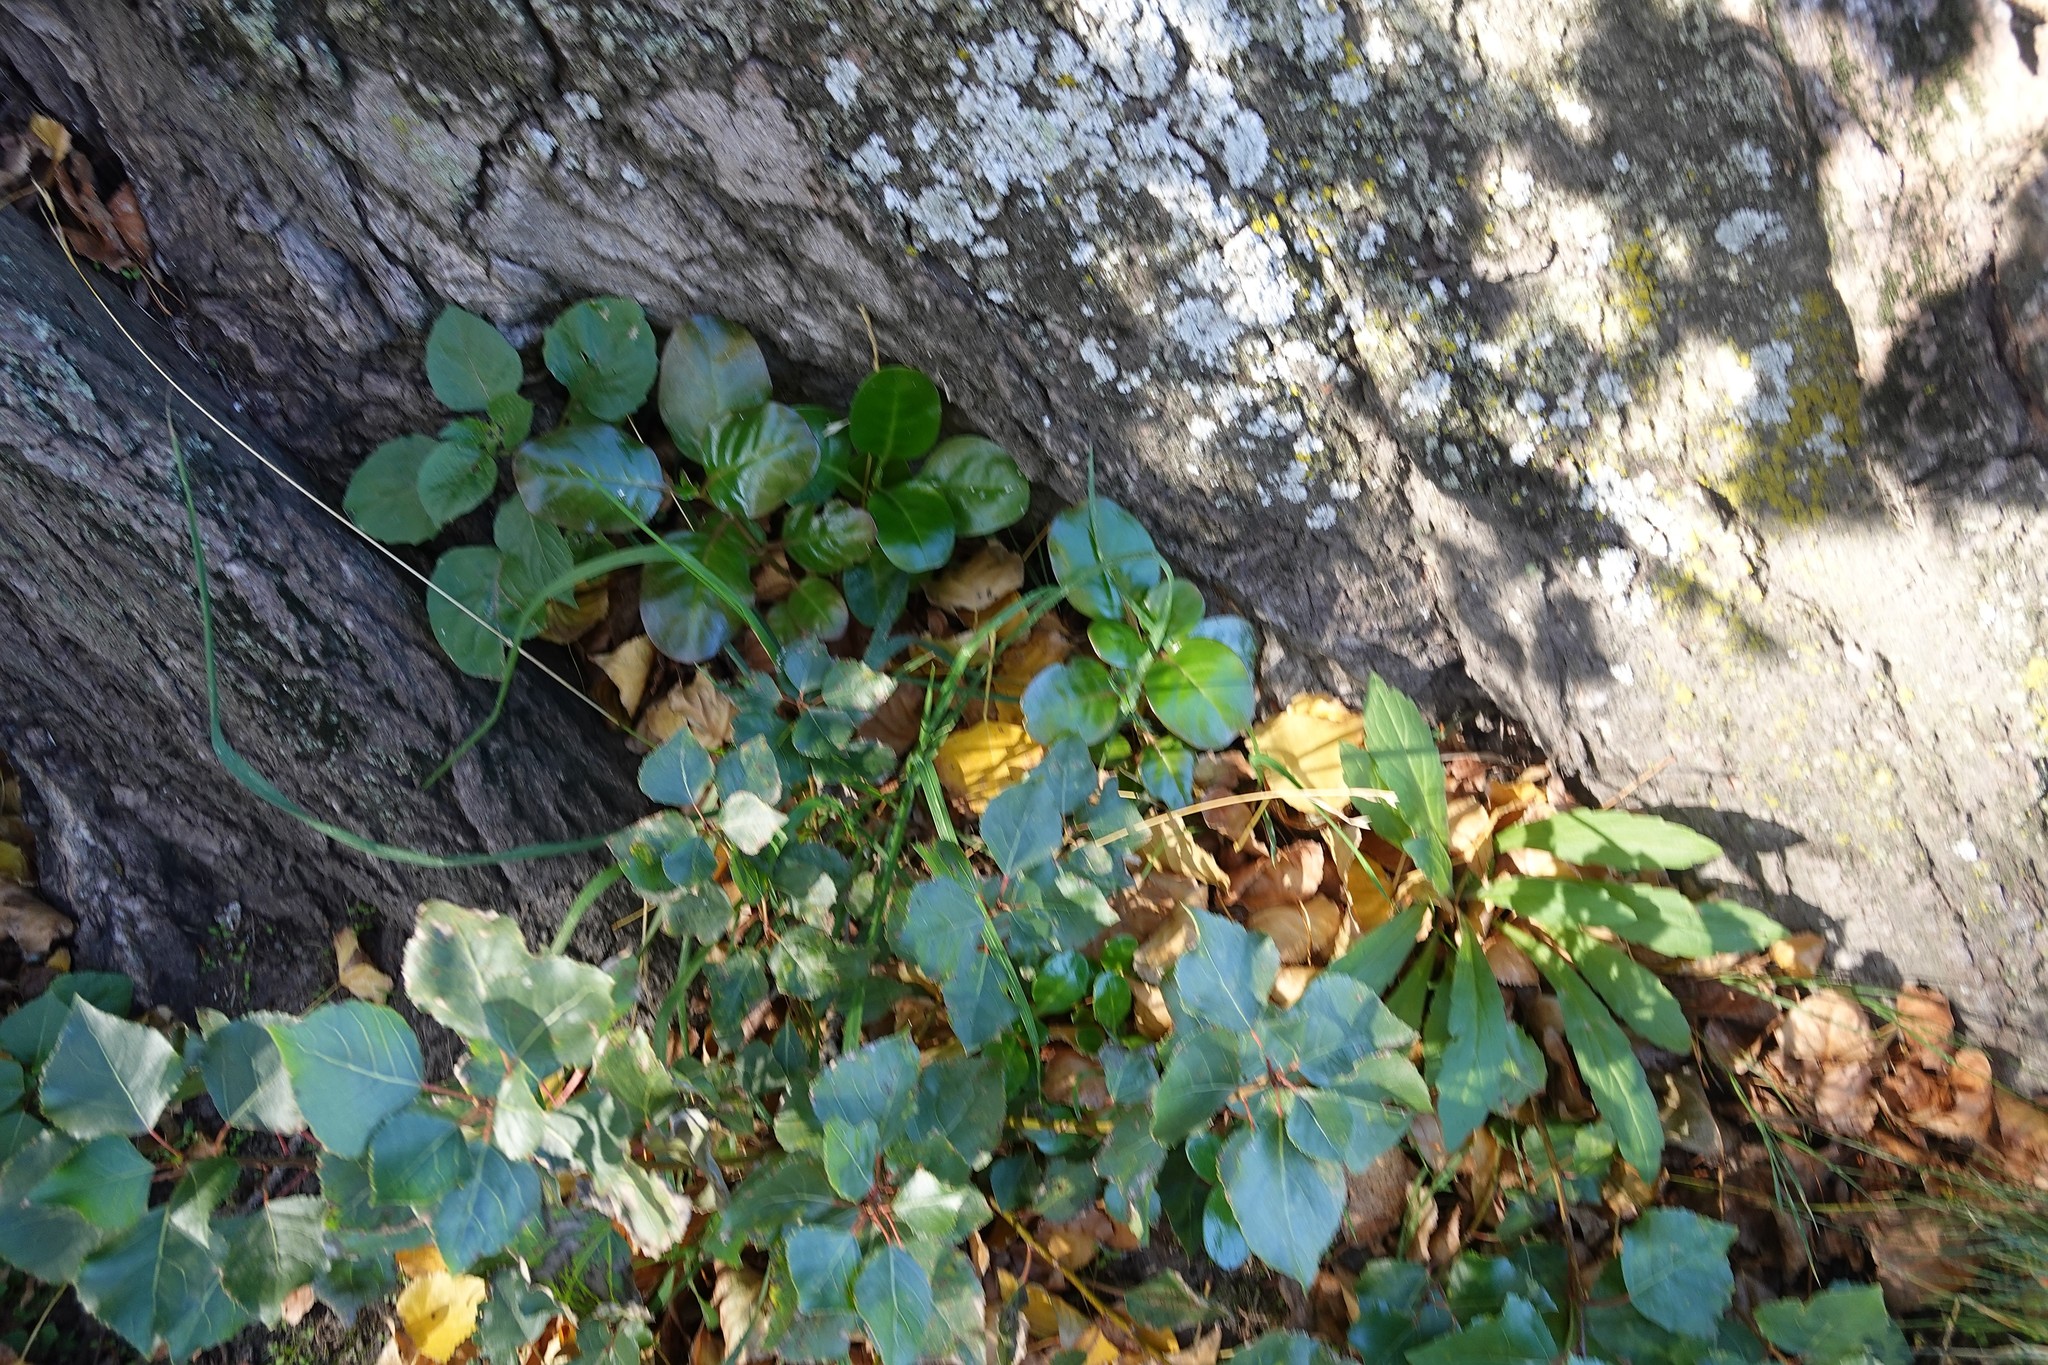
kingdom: Plantae
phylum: Tracheophyta
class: Magnoliopsida
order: Gentianales
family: Rubiaceae
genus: Coprosma
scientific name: Coprosma repens
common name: Tree bedstraw
